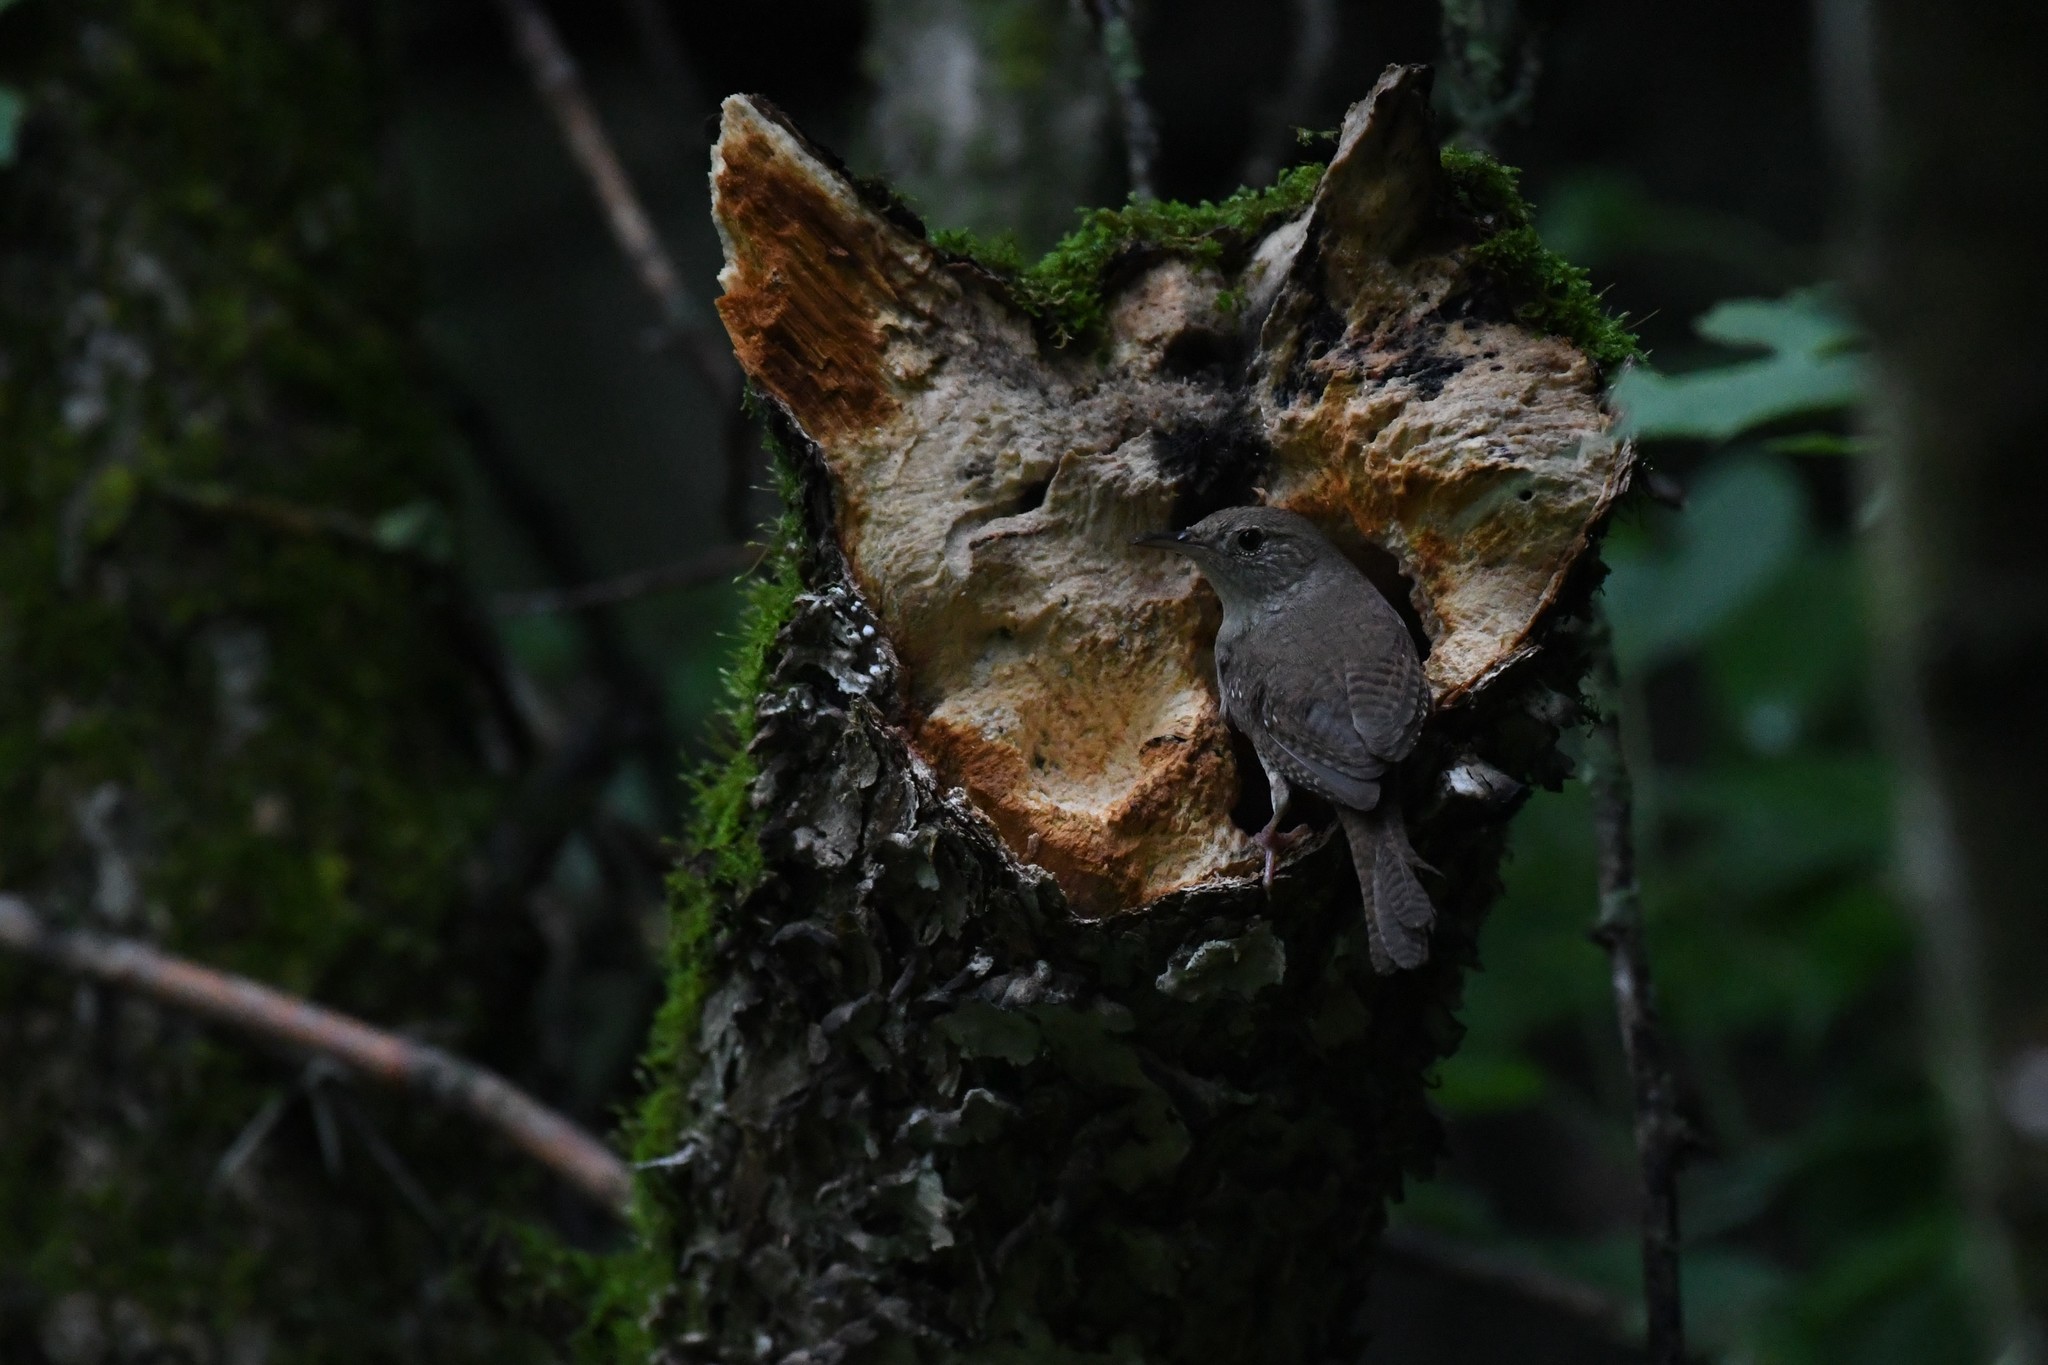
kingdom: Animalia
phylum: Chordata
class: Aves
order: Passeriformes
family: Troglodytidae
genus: Troglodytes
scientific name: Troglodytes aedon
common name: House wren
